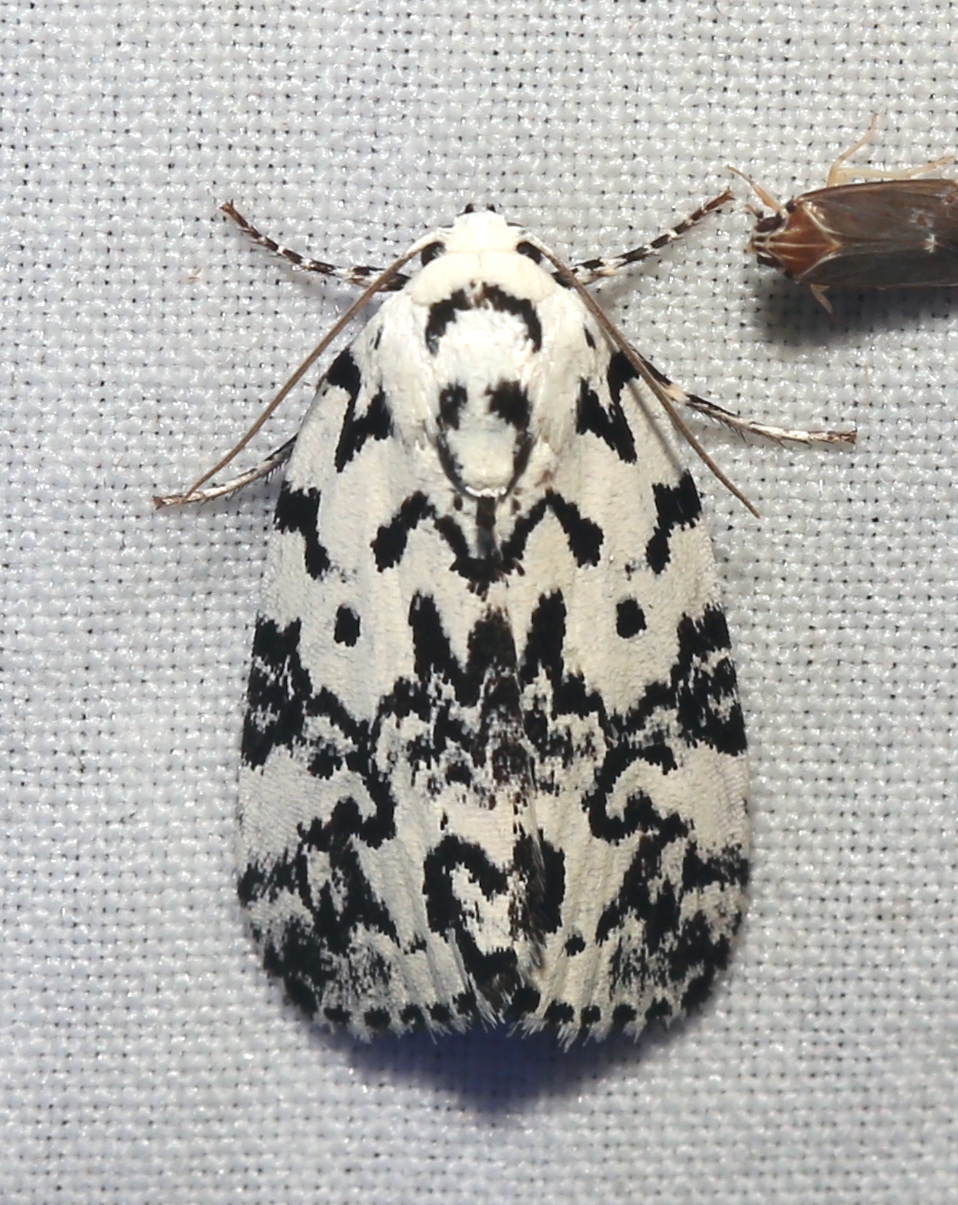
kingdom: Animalia
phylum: Arthropoda
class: Insecta
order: Lepidoptera
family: Noctuidae
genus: Polygrammate
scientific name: Polygrammate hebraeicum
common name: Hebrew moth
